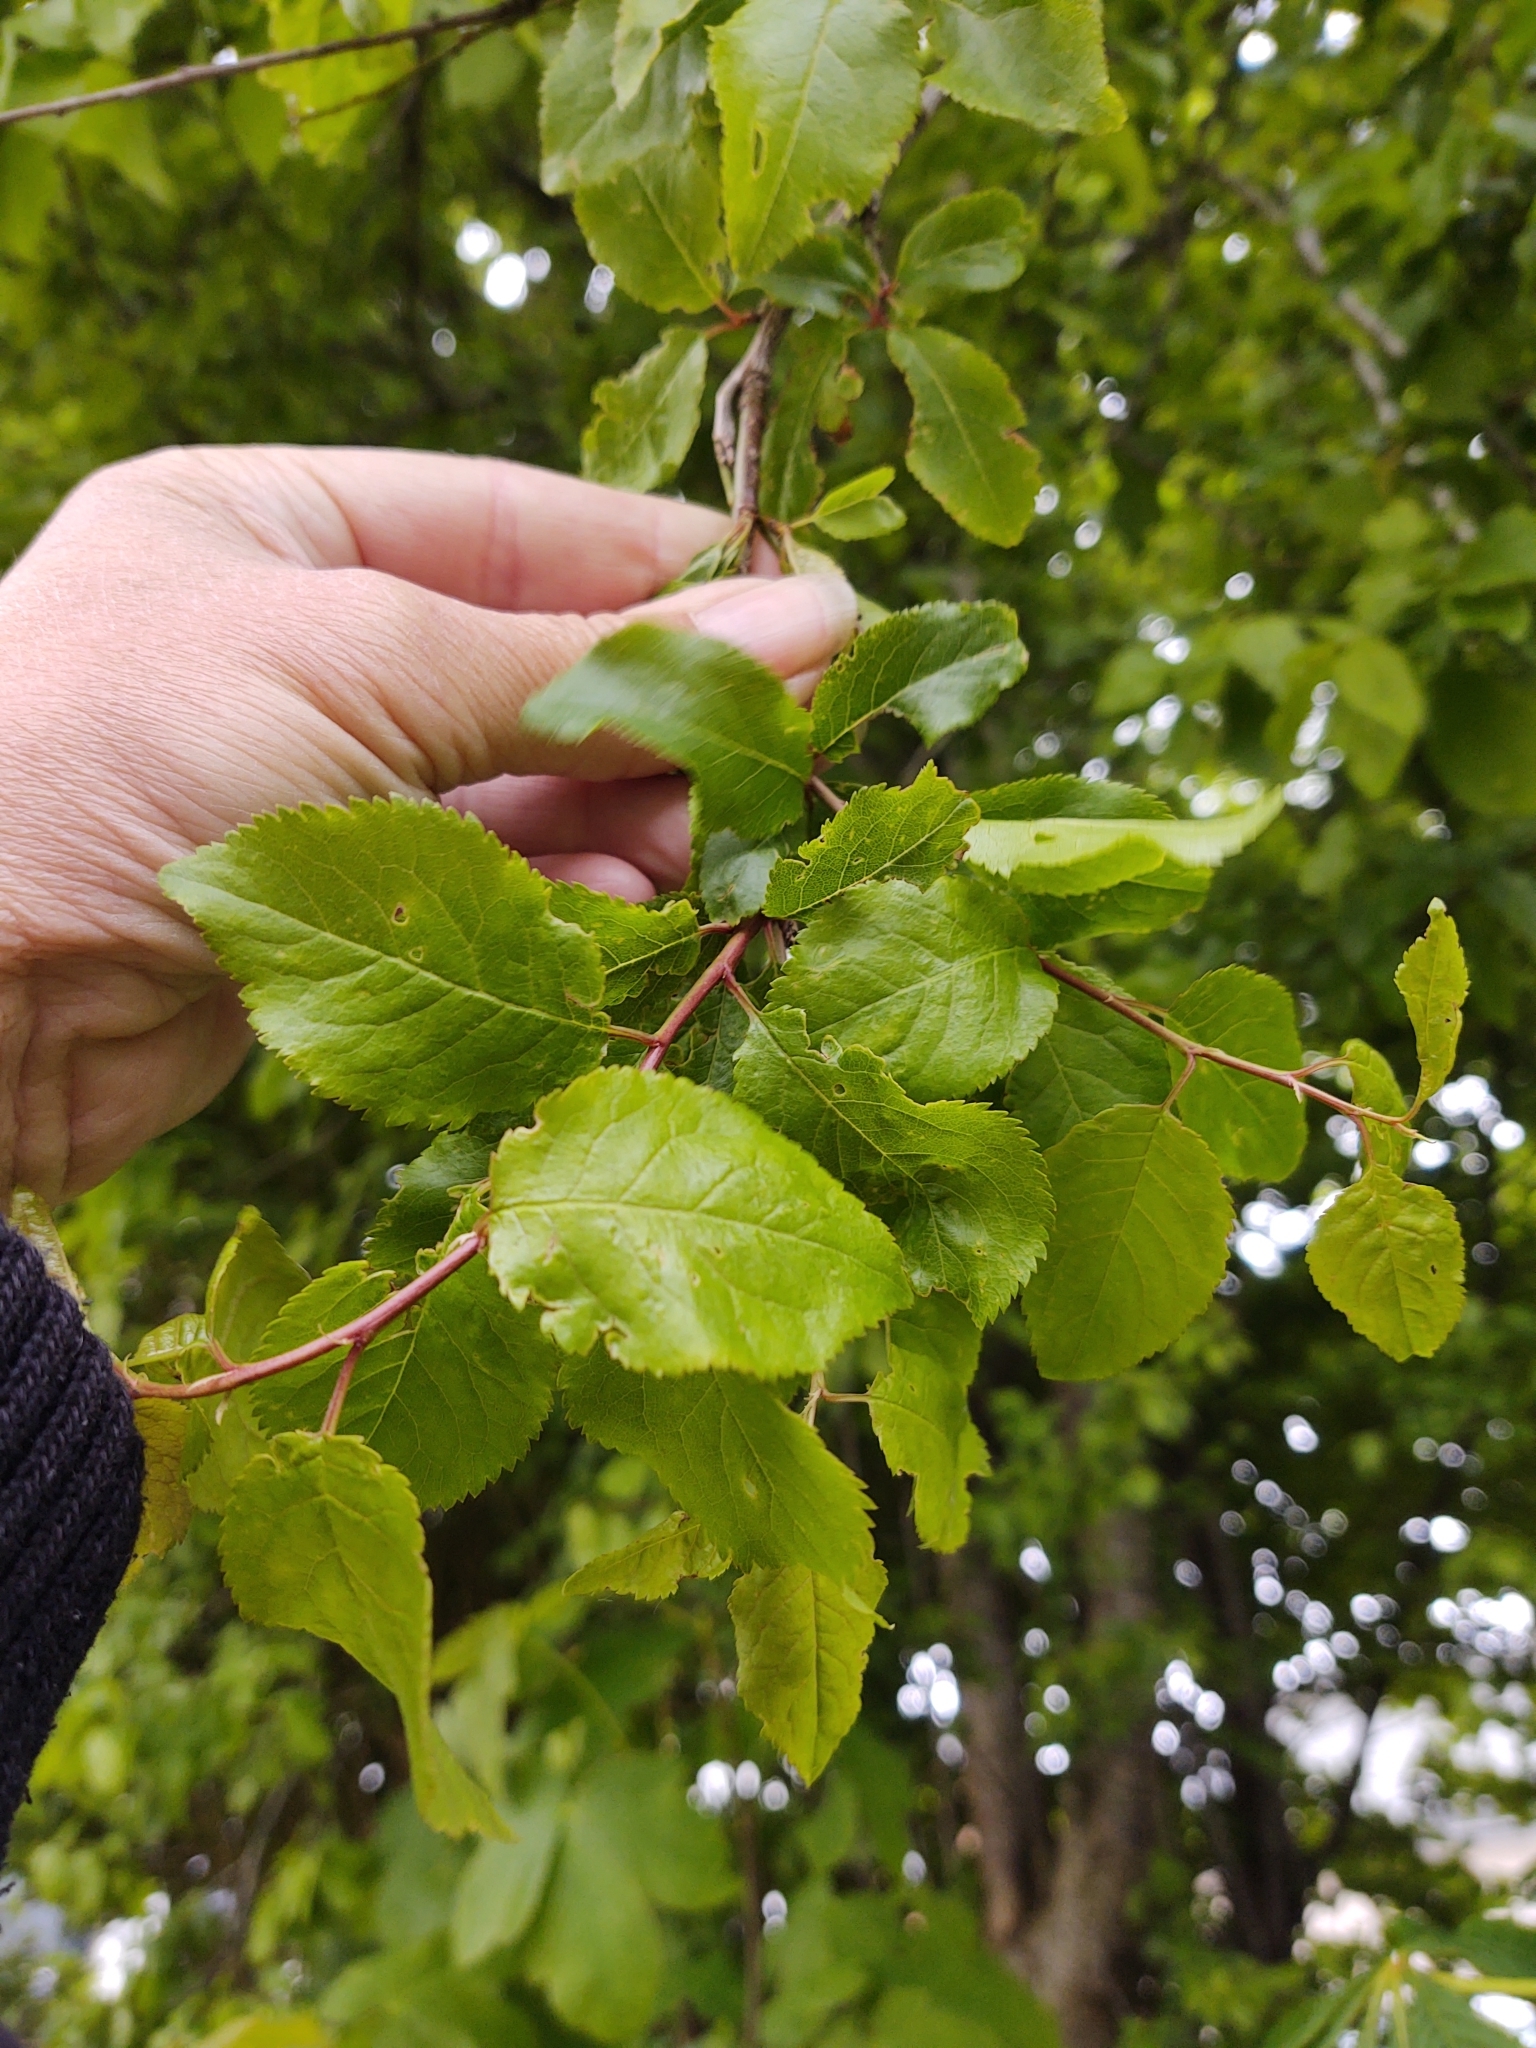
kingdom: Plantae
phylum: Tracheophyta
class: Magnoliopsida
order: Rosales
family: Rosaceae
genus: Prunus
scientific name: Prunus cerasifera
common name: Cherry plum
